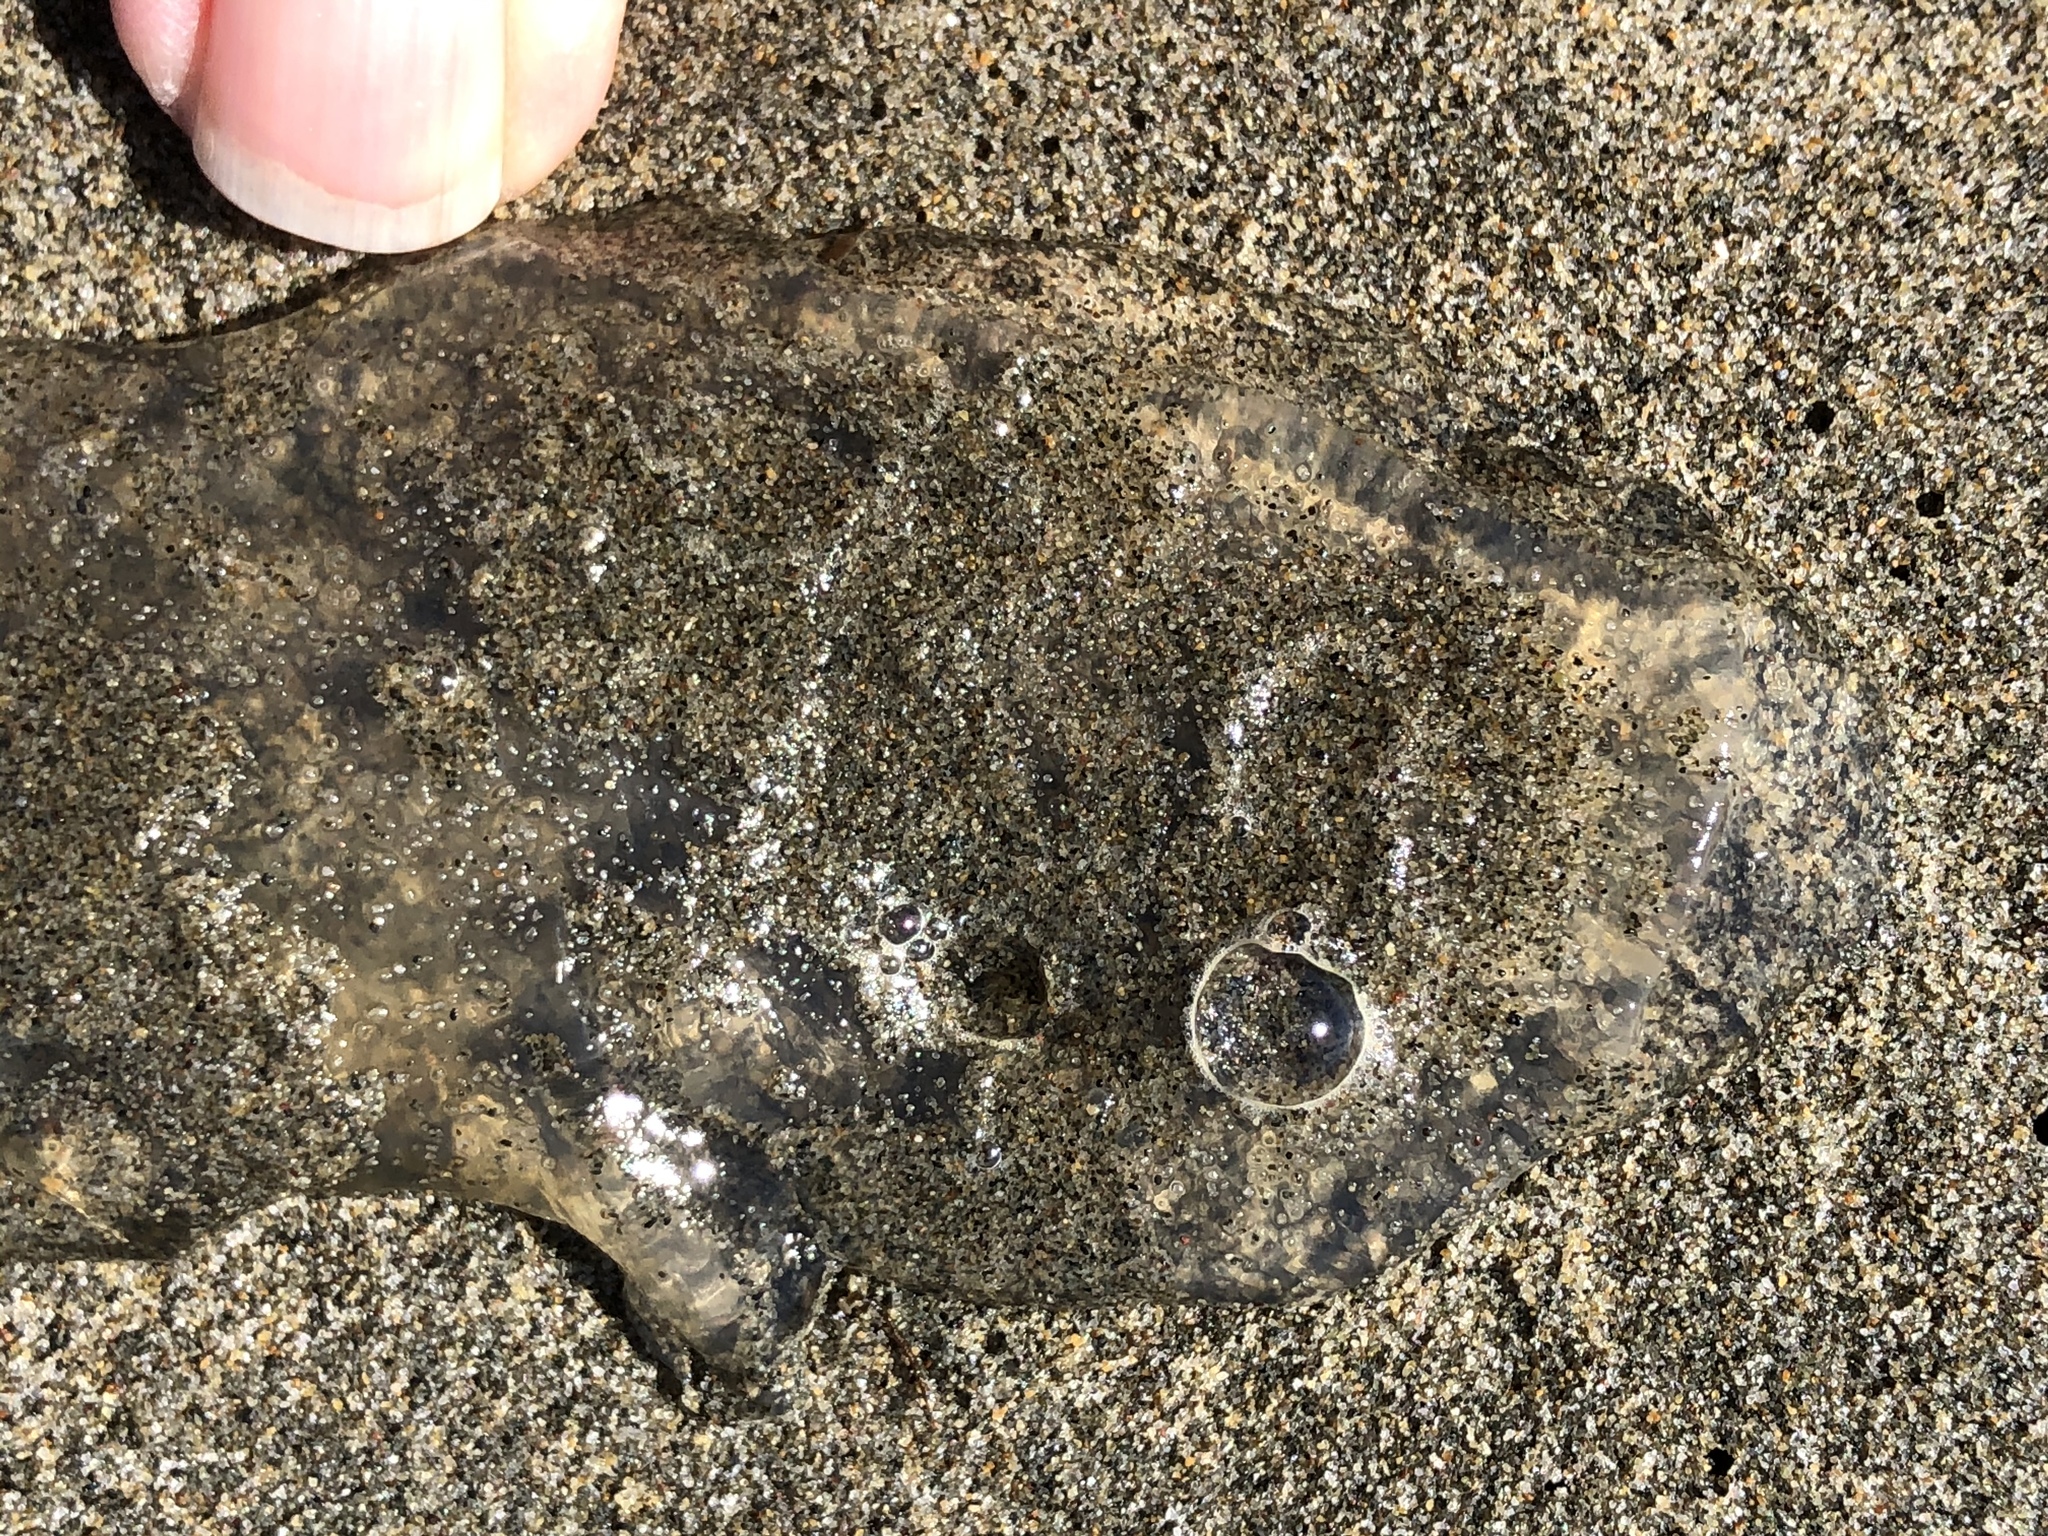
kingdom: Animalia
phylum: Cnidaria
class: Scyphozoa
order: Semaeostomeae
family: Pelagiidae
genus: Chrysaora
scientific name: Chrysaora fuscescens
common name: Sea nettle
